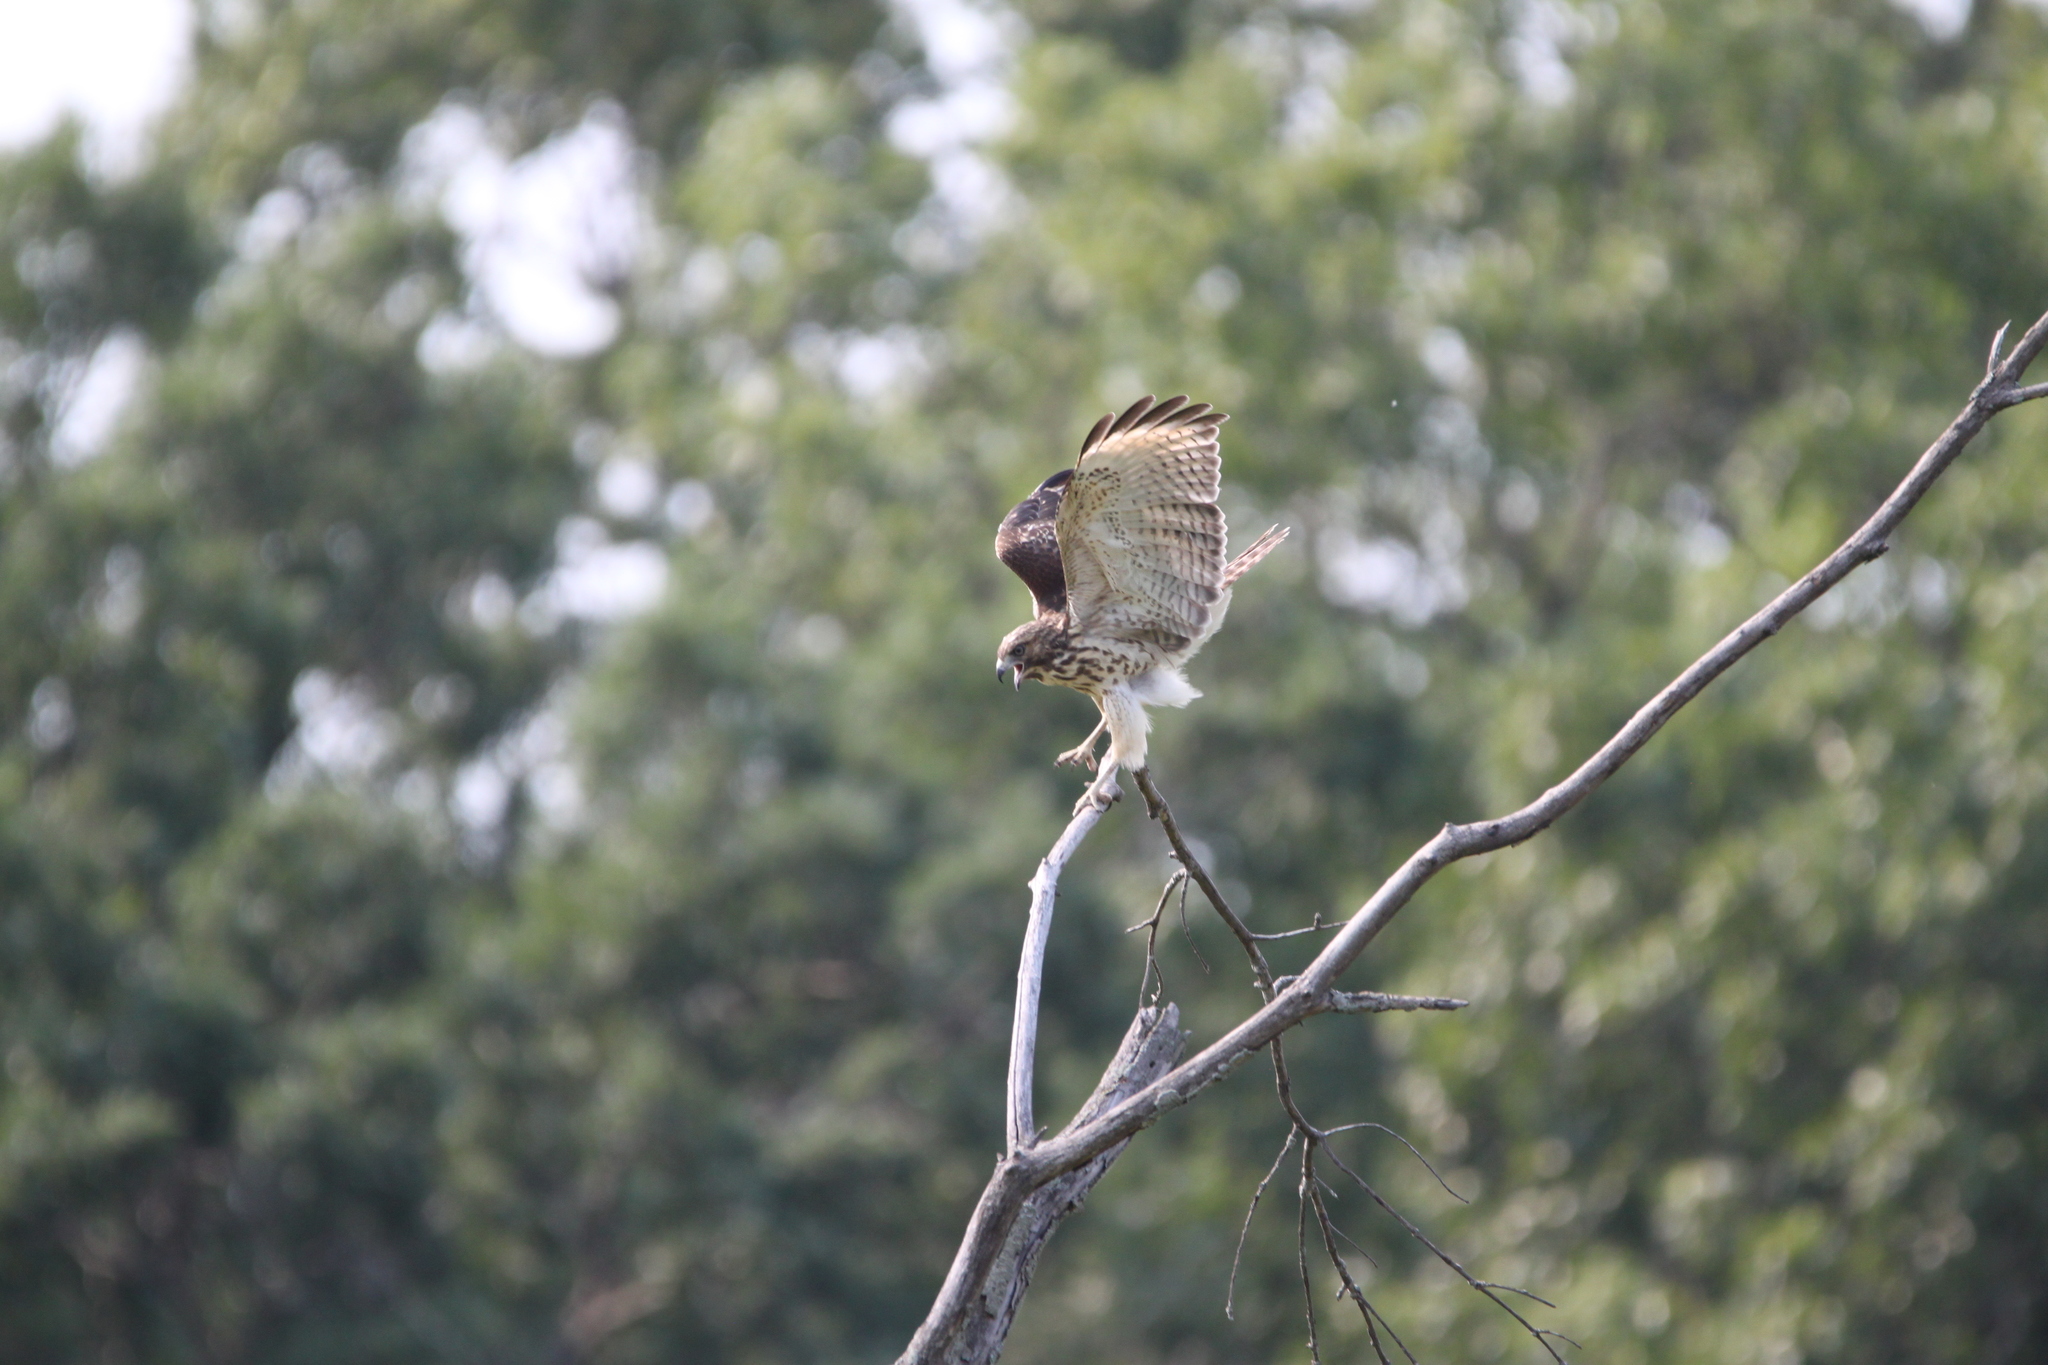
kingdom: Animalia
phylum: Chordata
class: Aves
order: Accipitriformes
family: Accipitridae
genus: Buteo
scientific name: Buteo lineatus
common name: Red-shouldered hawk
